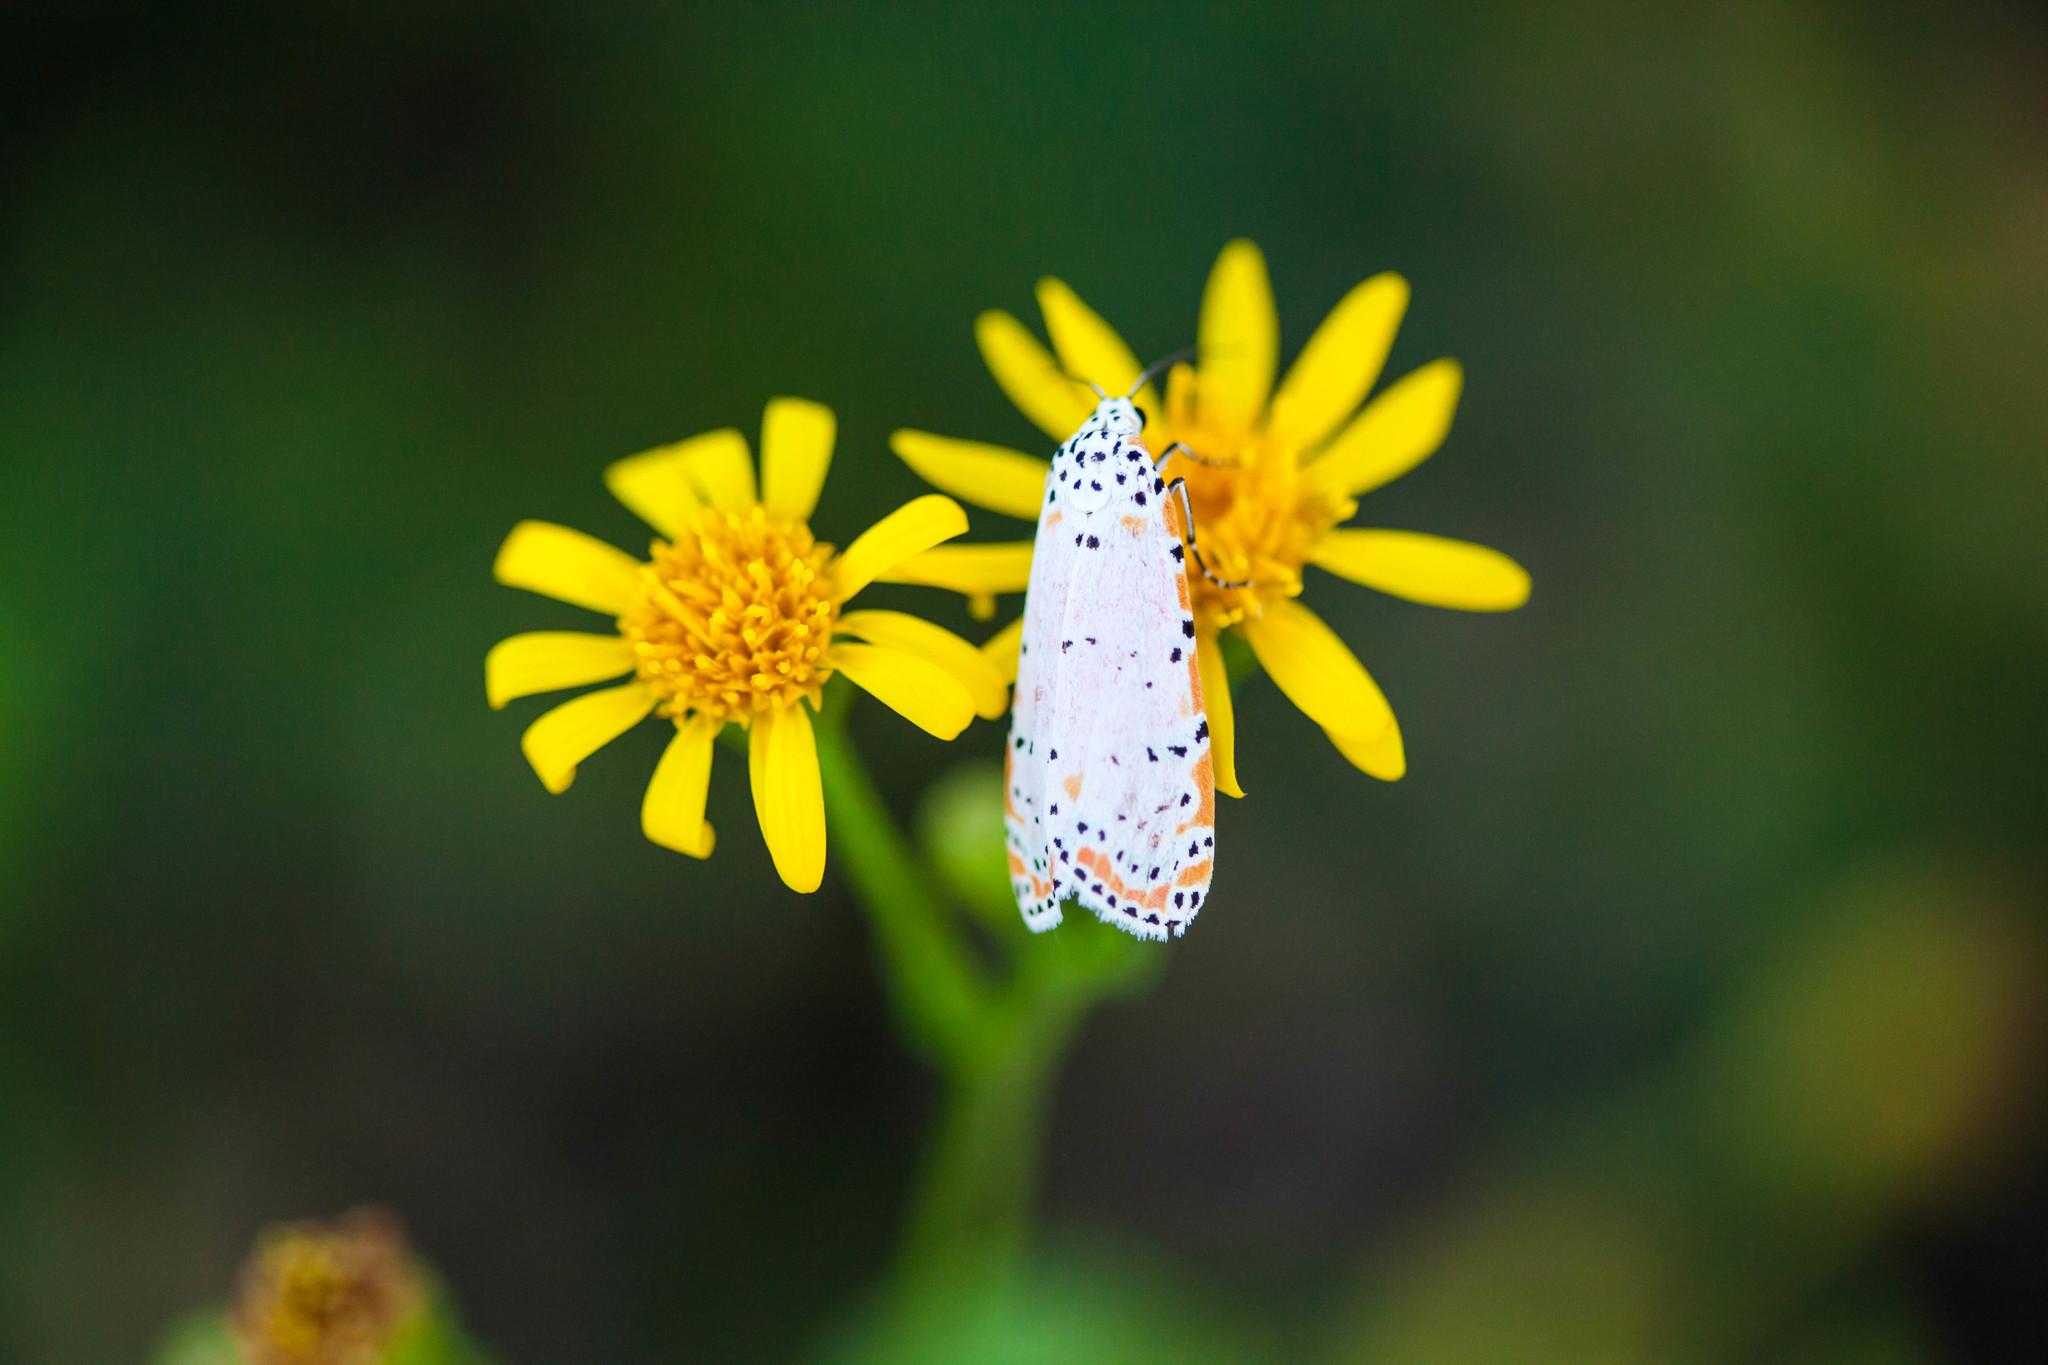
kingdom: Animalia
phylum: Arthropoda
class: Insecta
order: Lepidoptera
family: Erebidae
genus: Utetheisa
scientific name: Utetheisa ornatrix
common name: Beautiful utetheisa
